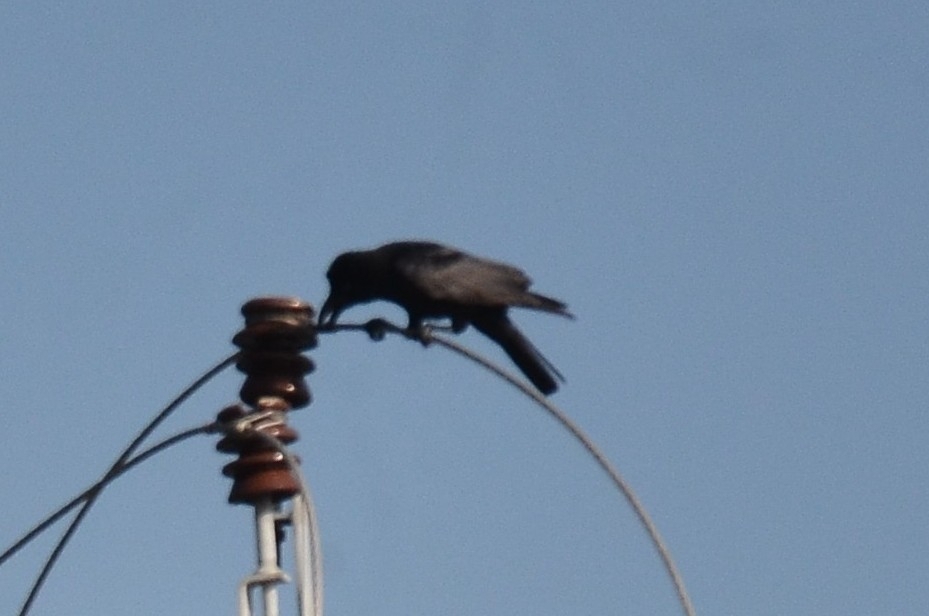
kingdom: Animalia
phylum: Chordata
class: Aves
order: Passeriformes
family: Corvidae
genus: Corvus
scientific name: Corvus macrorhynchos
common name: Large-billed crow
